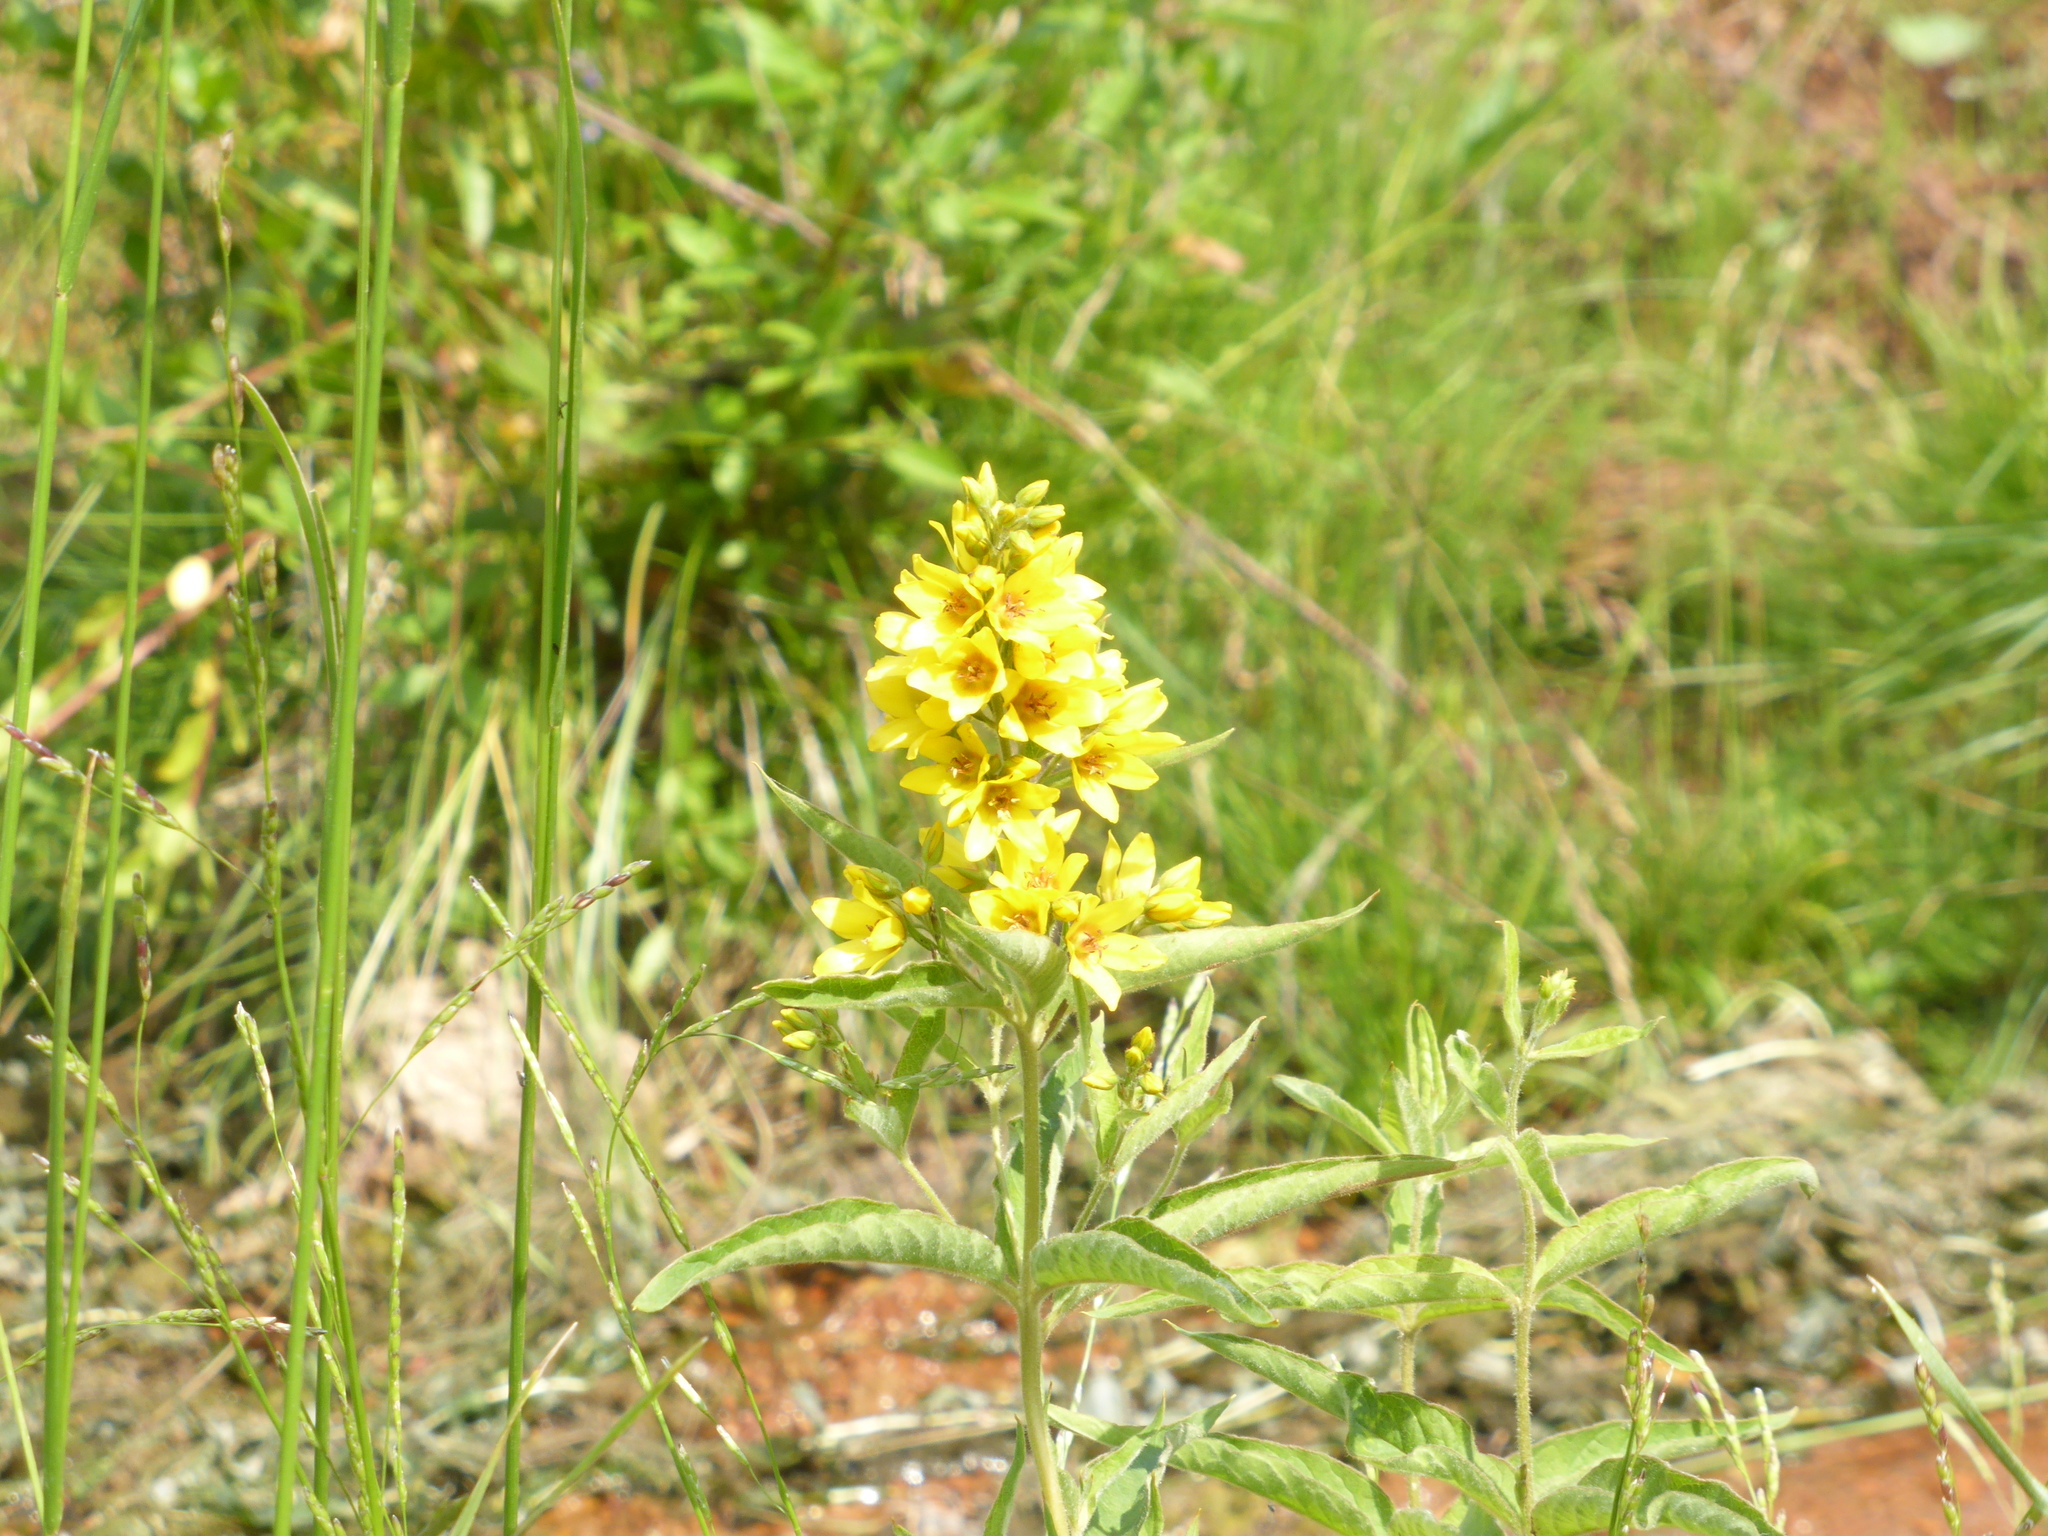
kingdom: Plantae
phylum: Tracheophyta
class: Magnoliopsida
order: Ericales
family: Primulaceae
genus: Lysimachia
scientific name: Lysimachia vulgaris
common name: Yellow loosestrife
